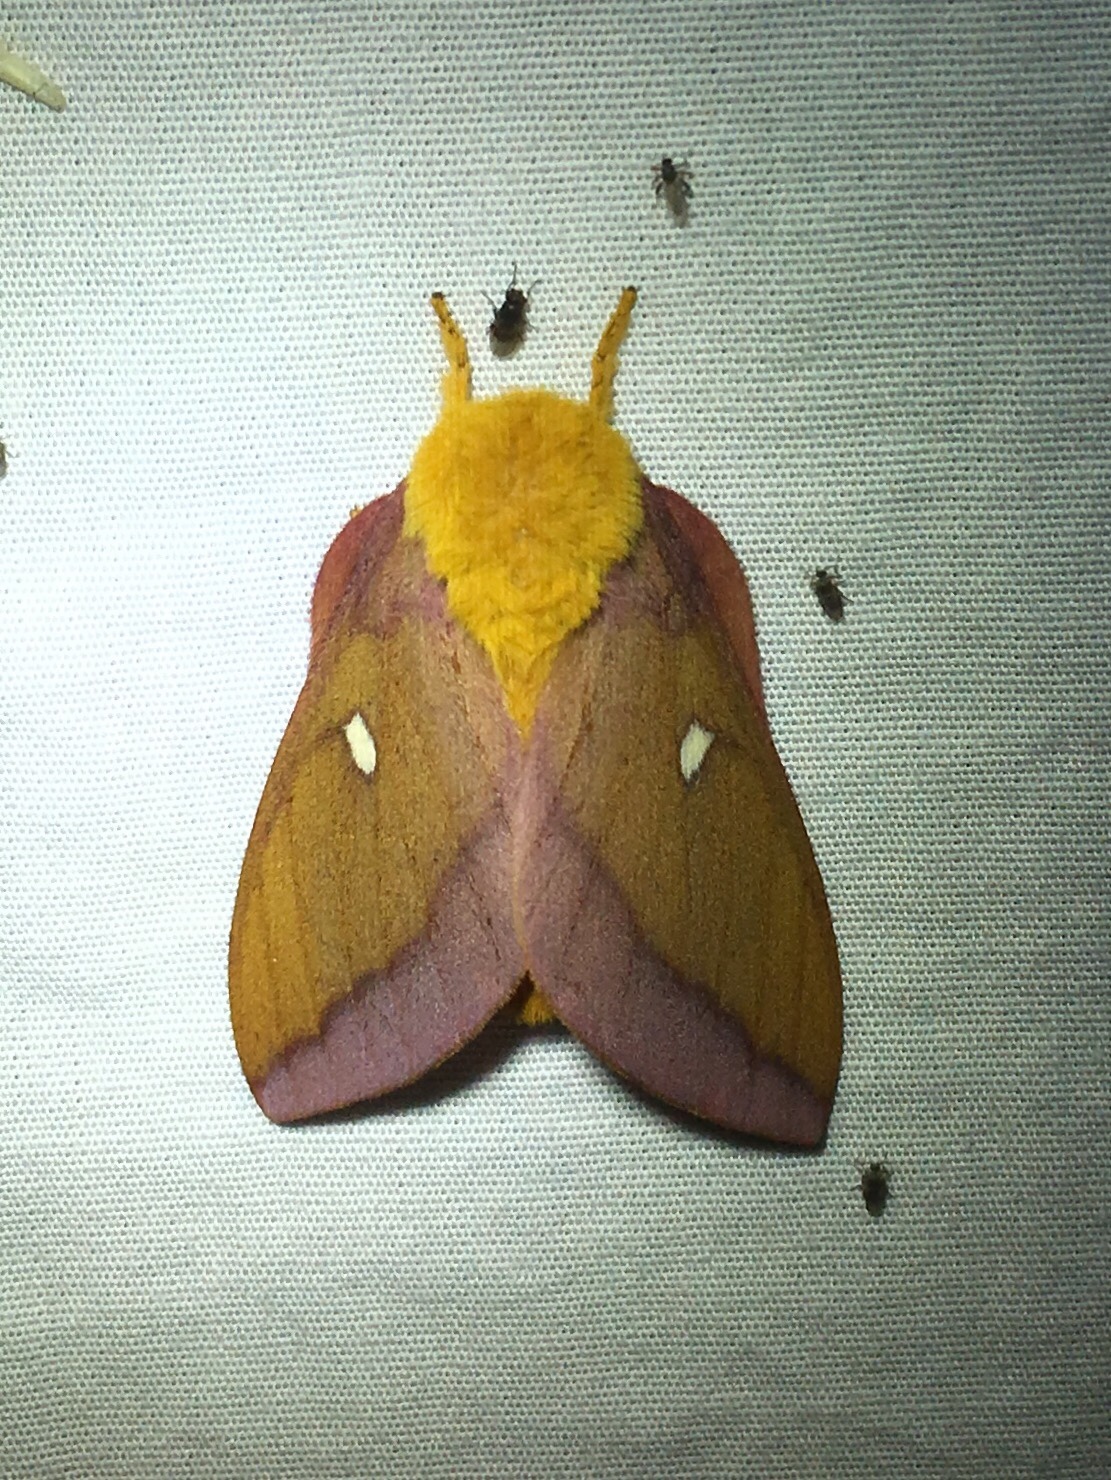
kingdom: Animalia
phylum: Arthropoda
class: Insecta
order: Lepidoptera
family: Saturniidae
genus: Anisota
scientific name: Anisota virginiensis
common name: Pink striped oakworm moth
